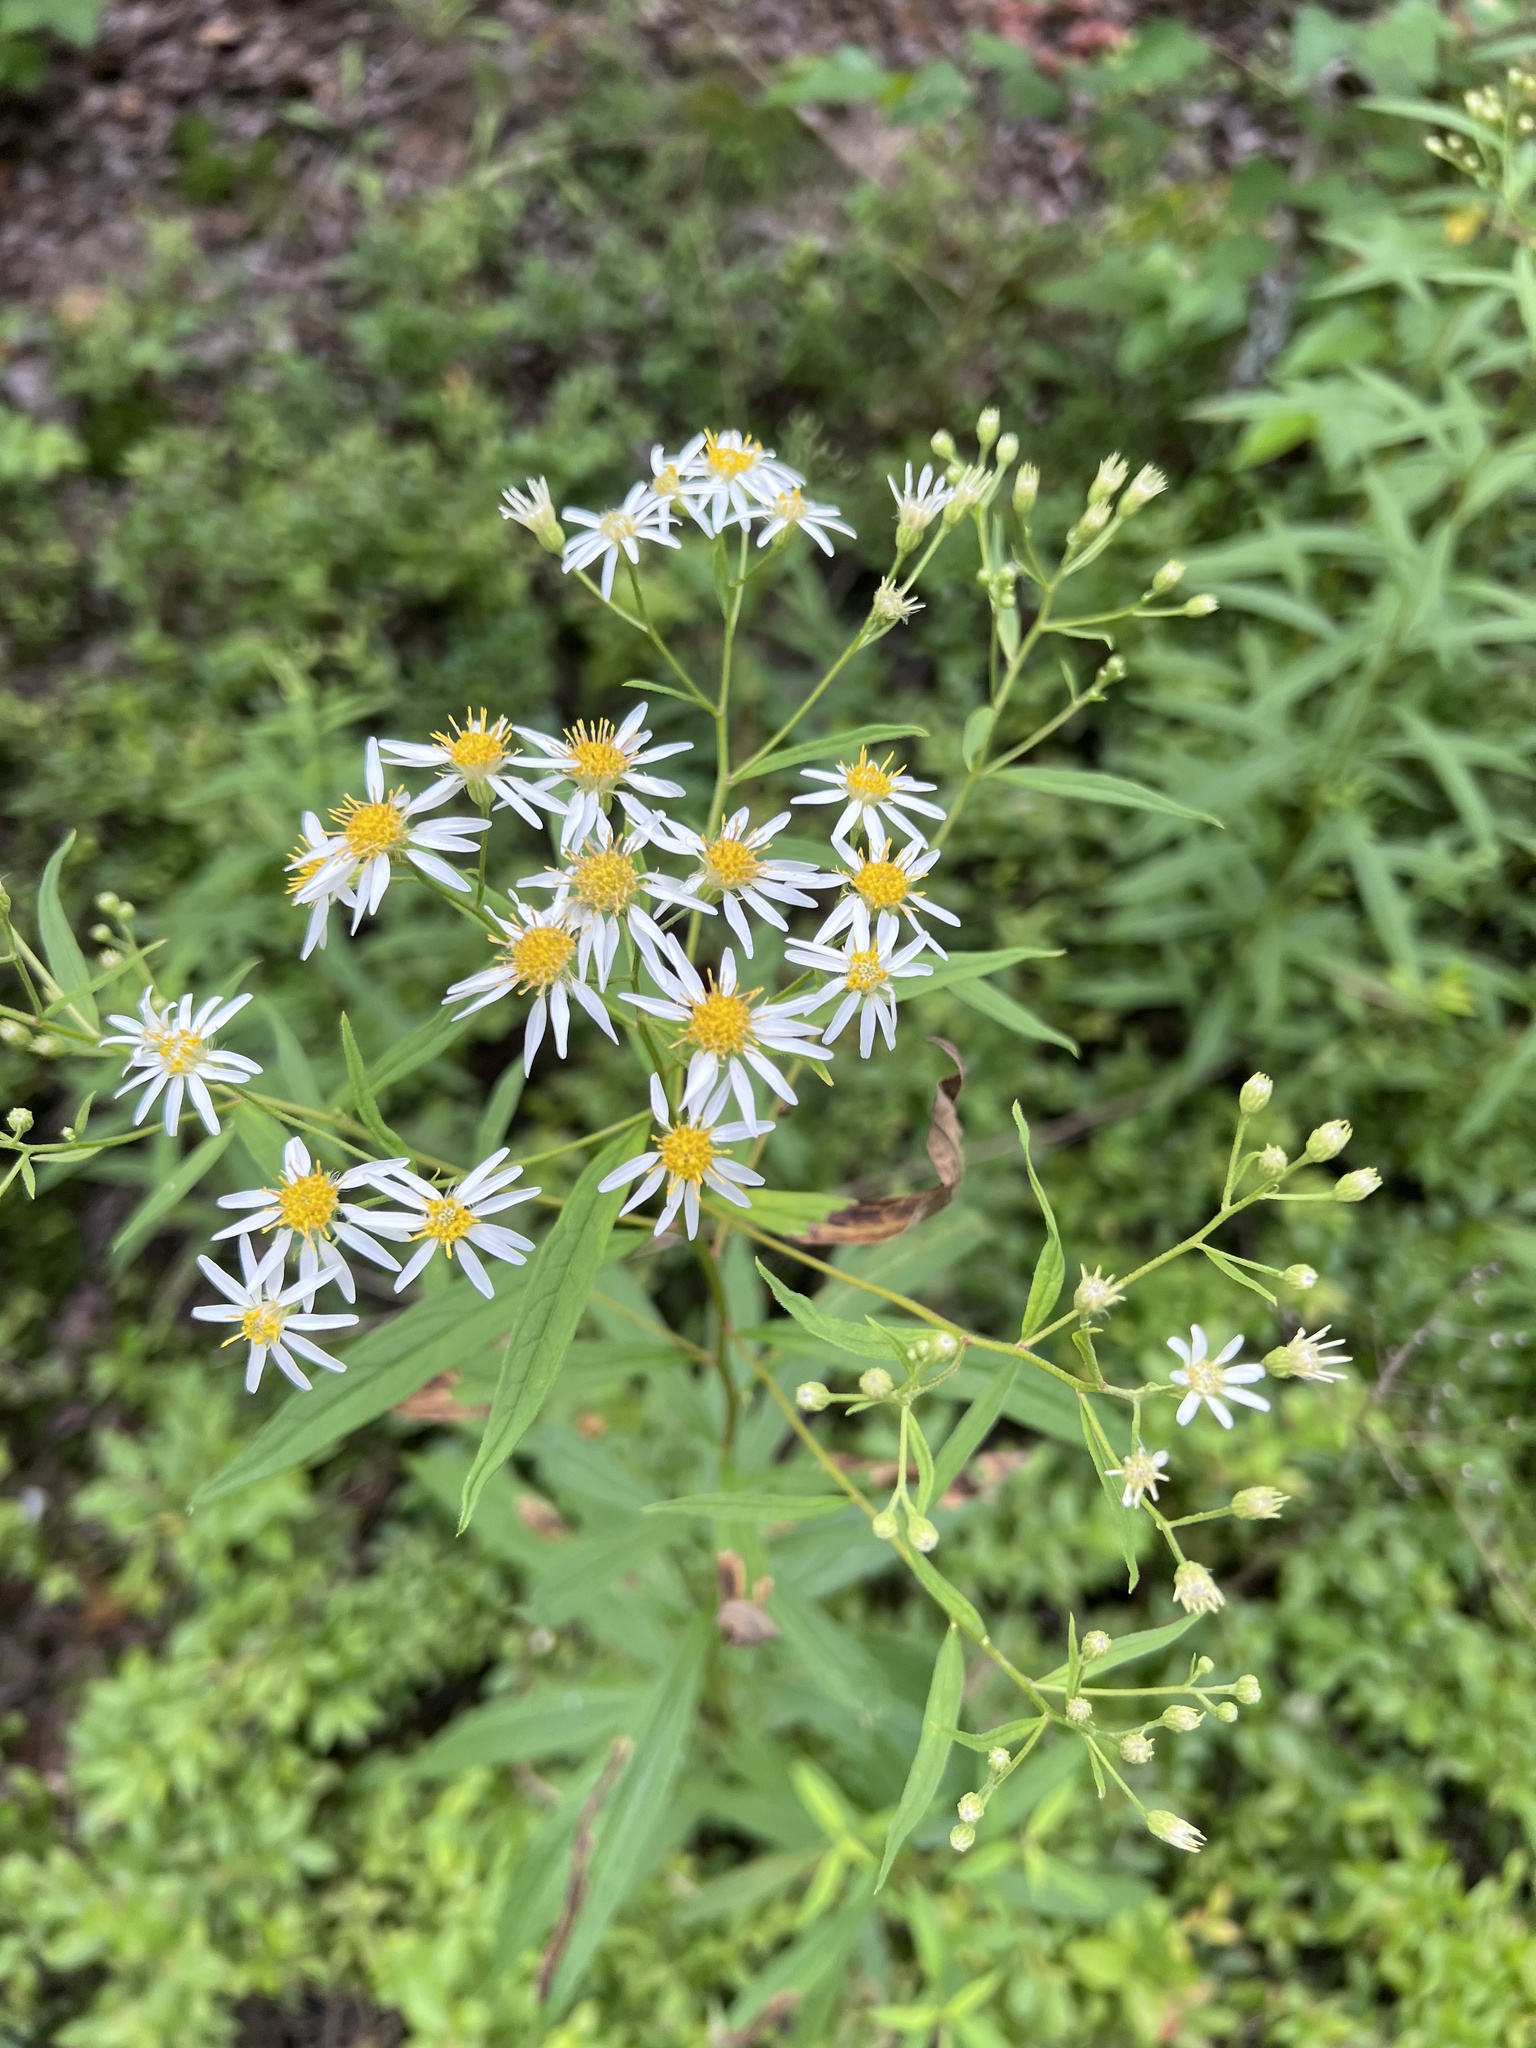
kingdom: Plantae
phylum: Tracheophyta
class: Magnoliopsida
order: Asterales
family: Asteraceae
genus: Doellingeria
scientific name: Doellingeria umbellata
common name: Flat-top white aster
